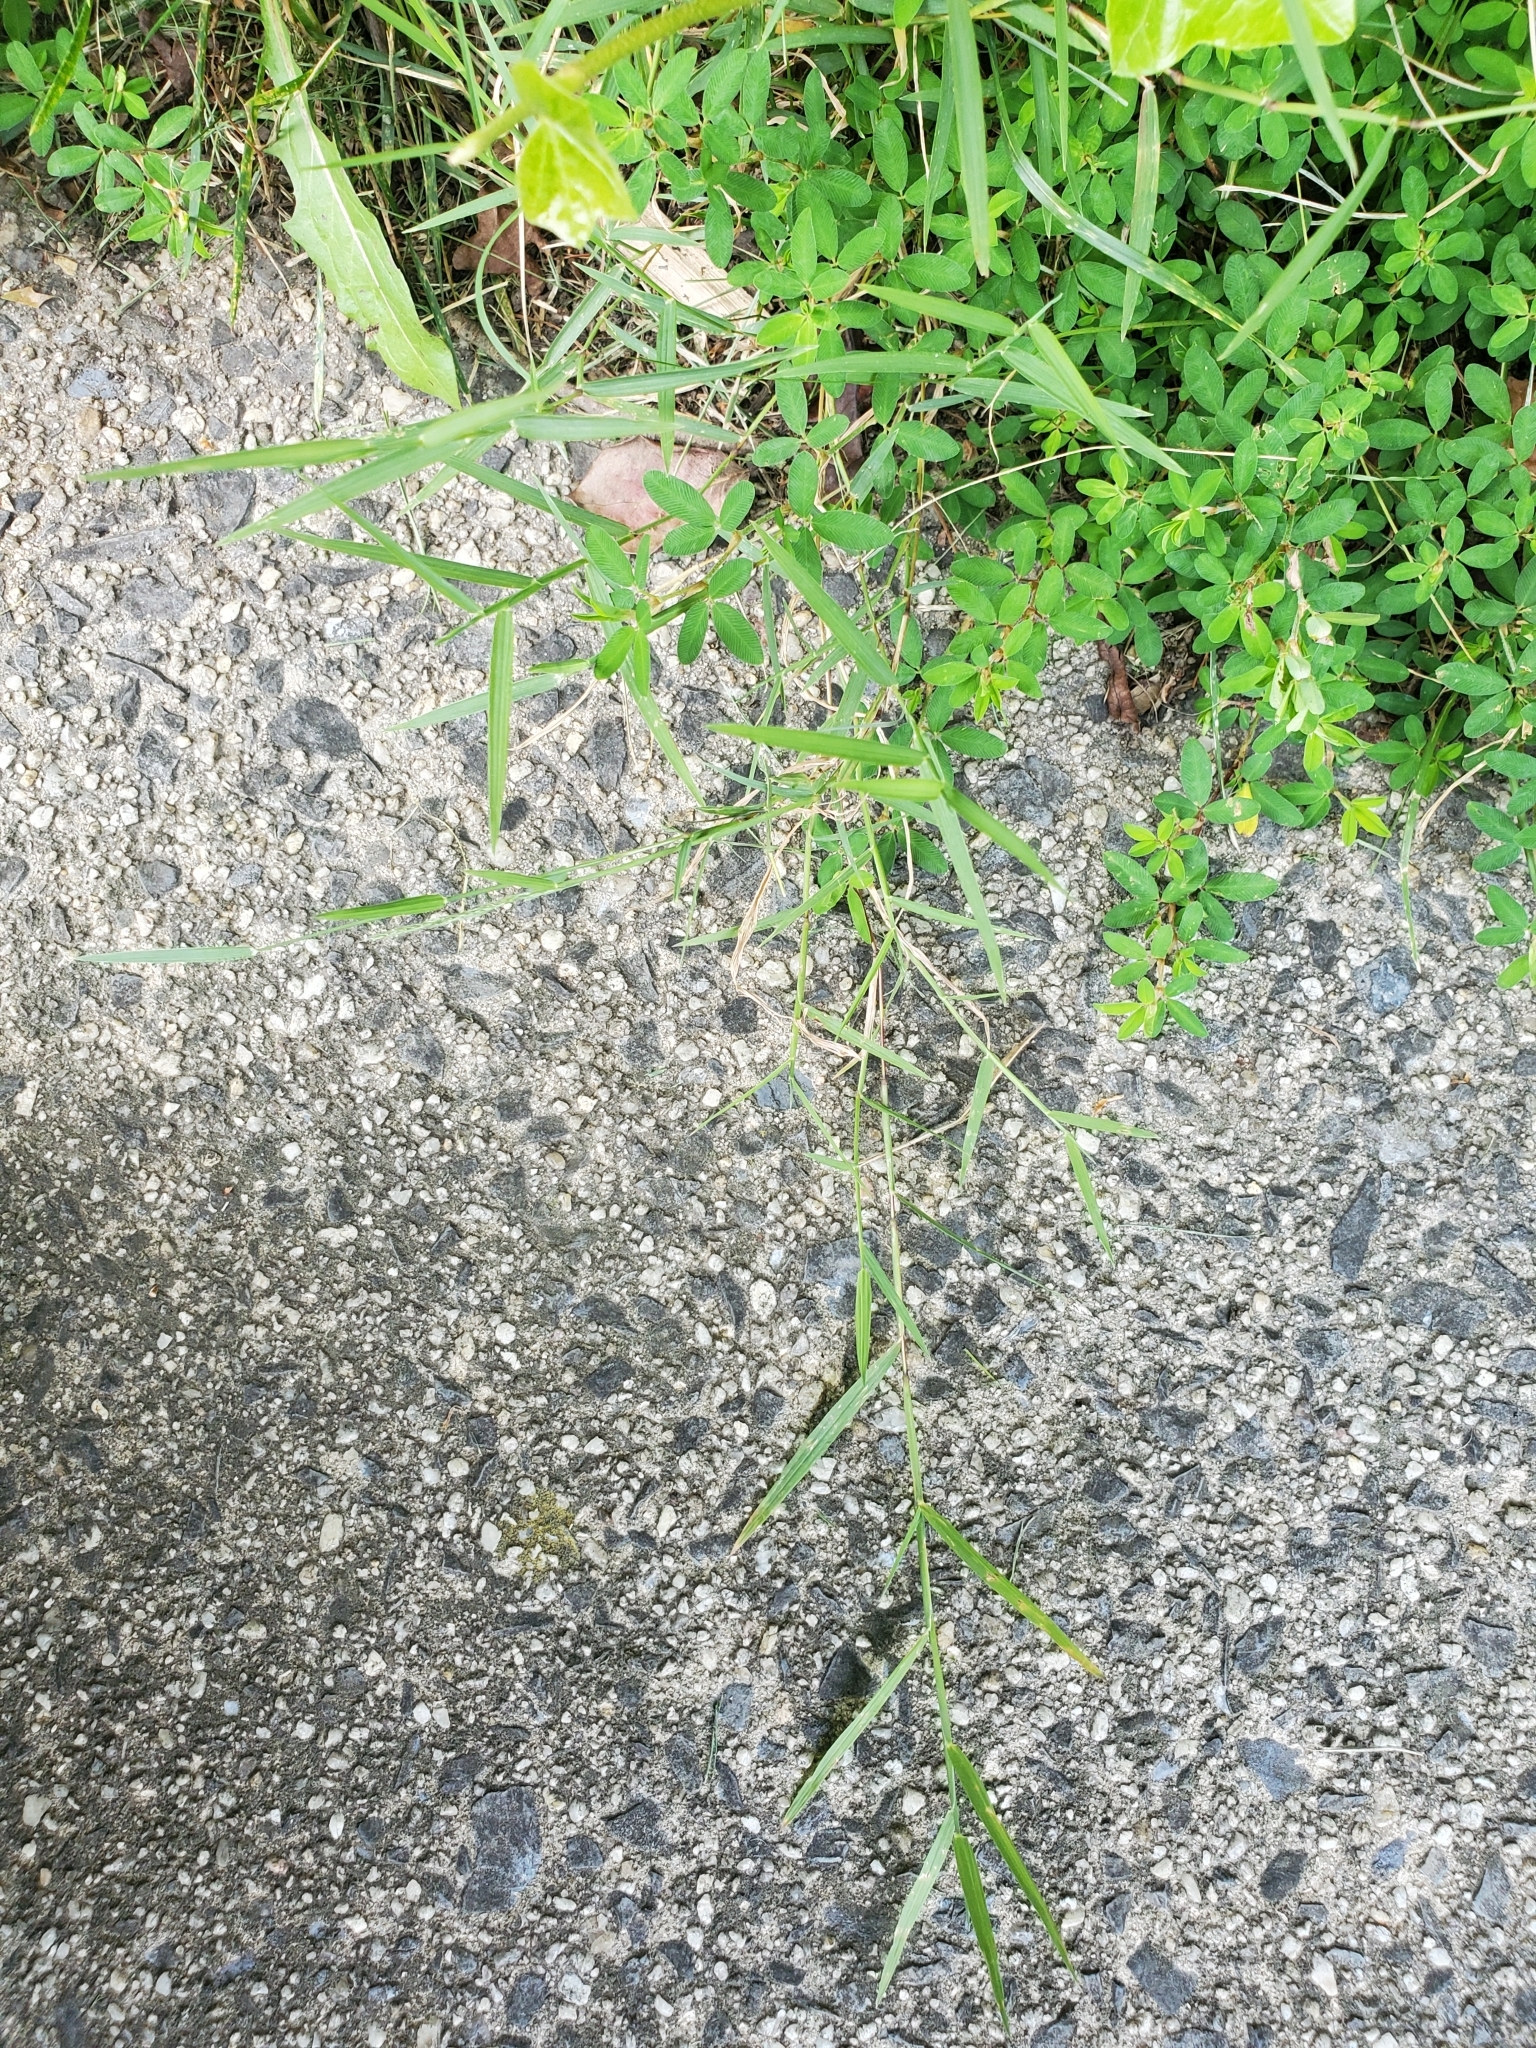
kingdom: Plantae
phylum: Tracheophyta
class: Liliopsida
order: Poales
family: Poaceae
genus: Muhlenbergia
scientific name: Muhlenbergia schreberi
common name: Nimblewill
